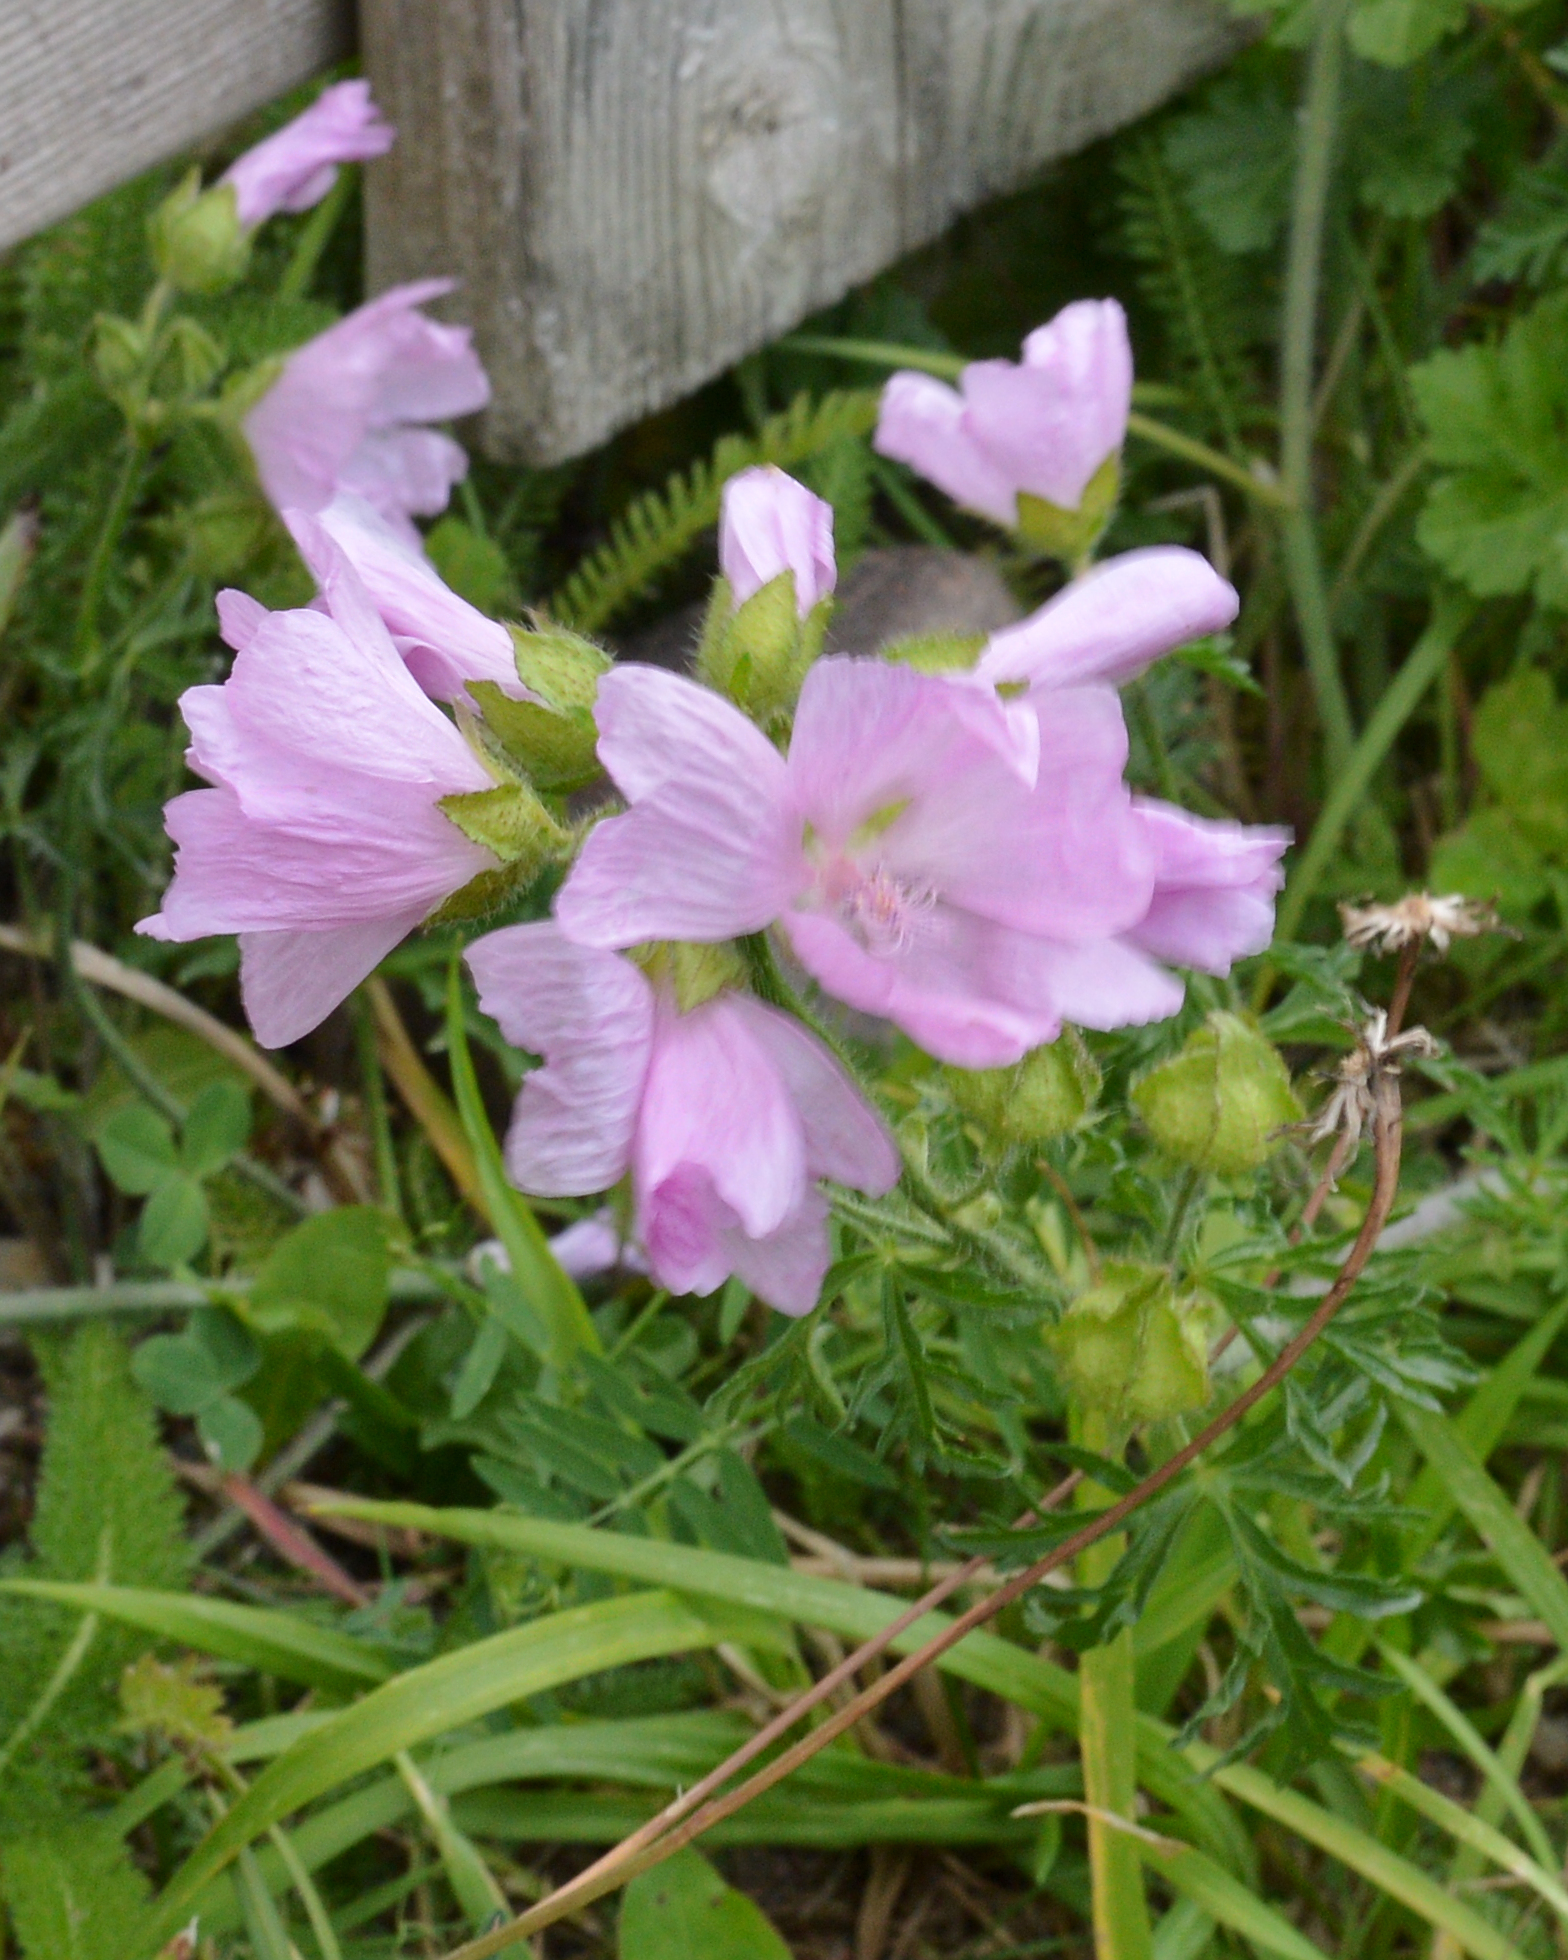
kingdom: Plantae
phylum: Tracheophyta
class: Magnoliopsida
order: Malvales
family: Malvaceae
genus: Malva
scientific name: Malva moschata
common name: Musk mallow
